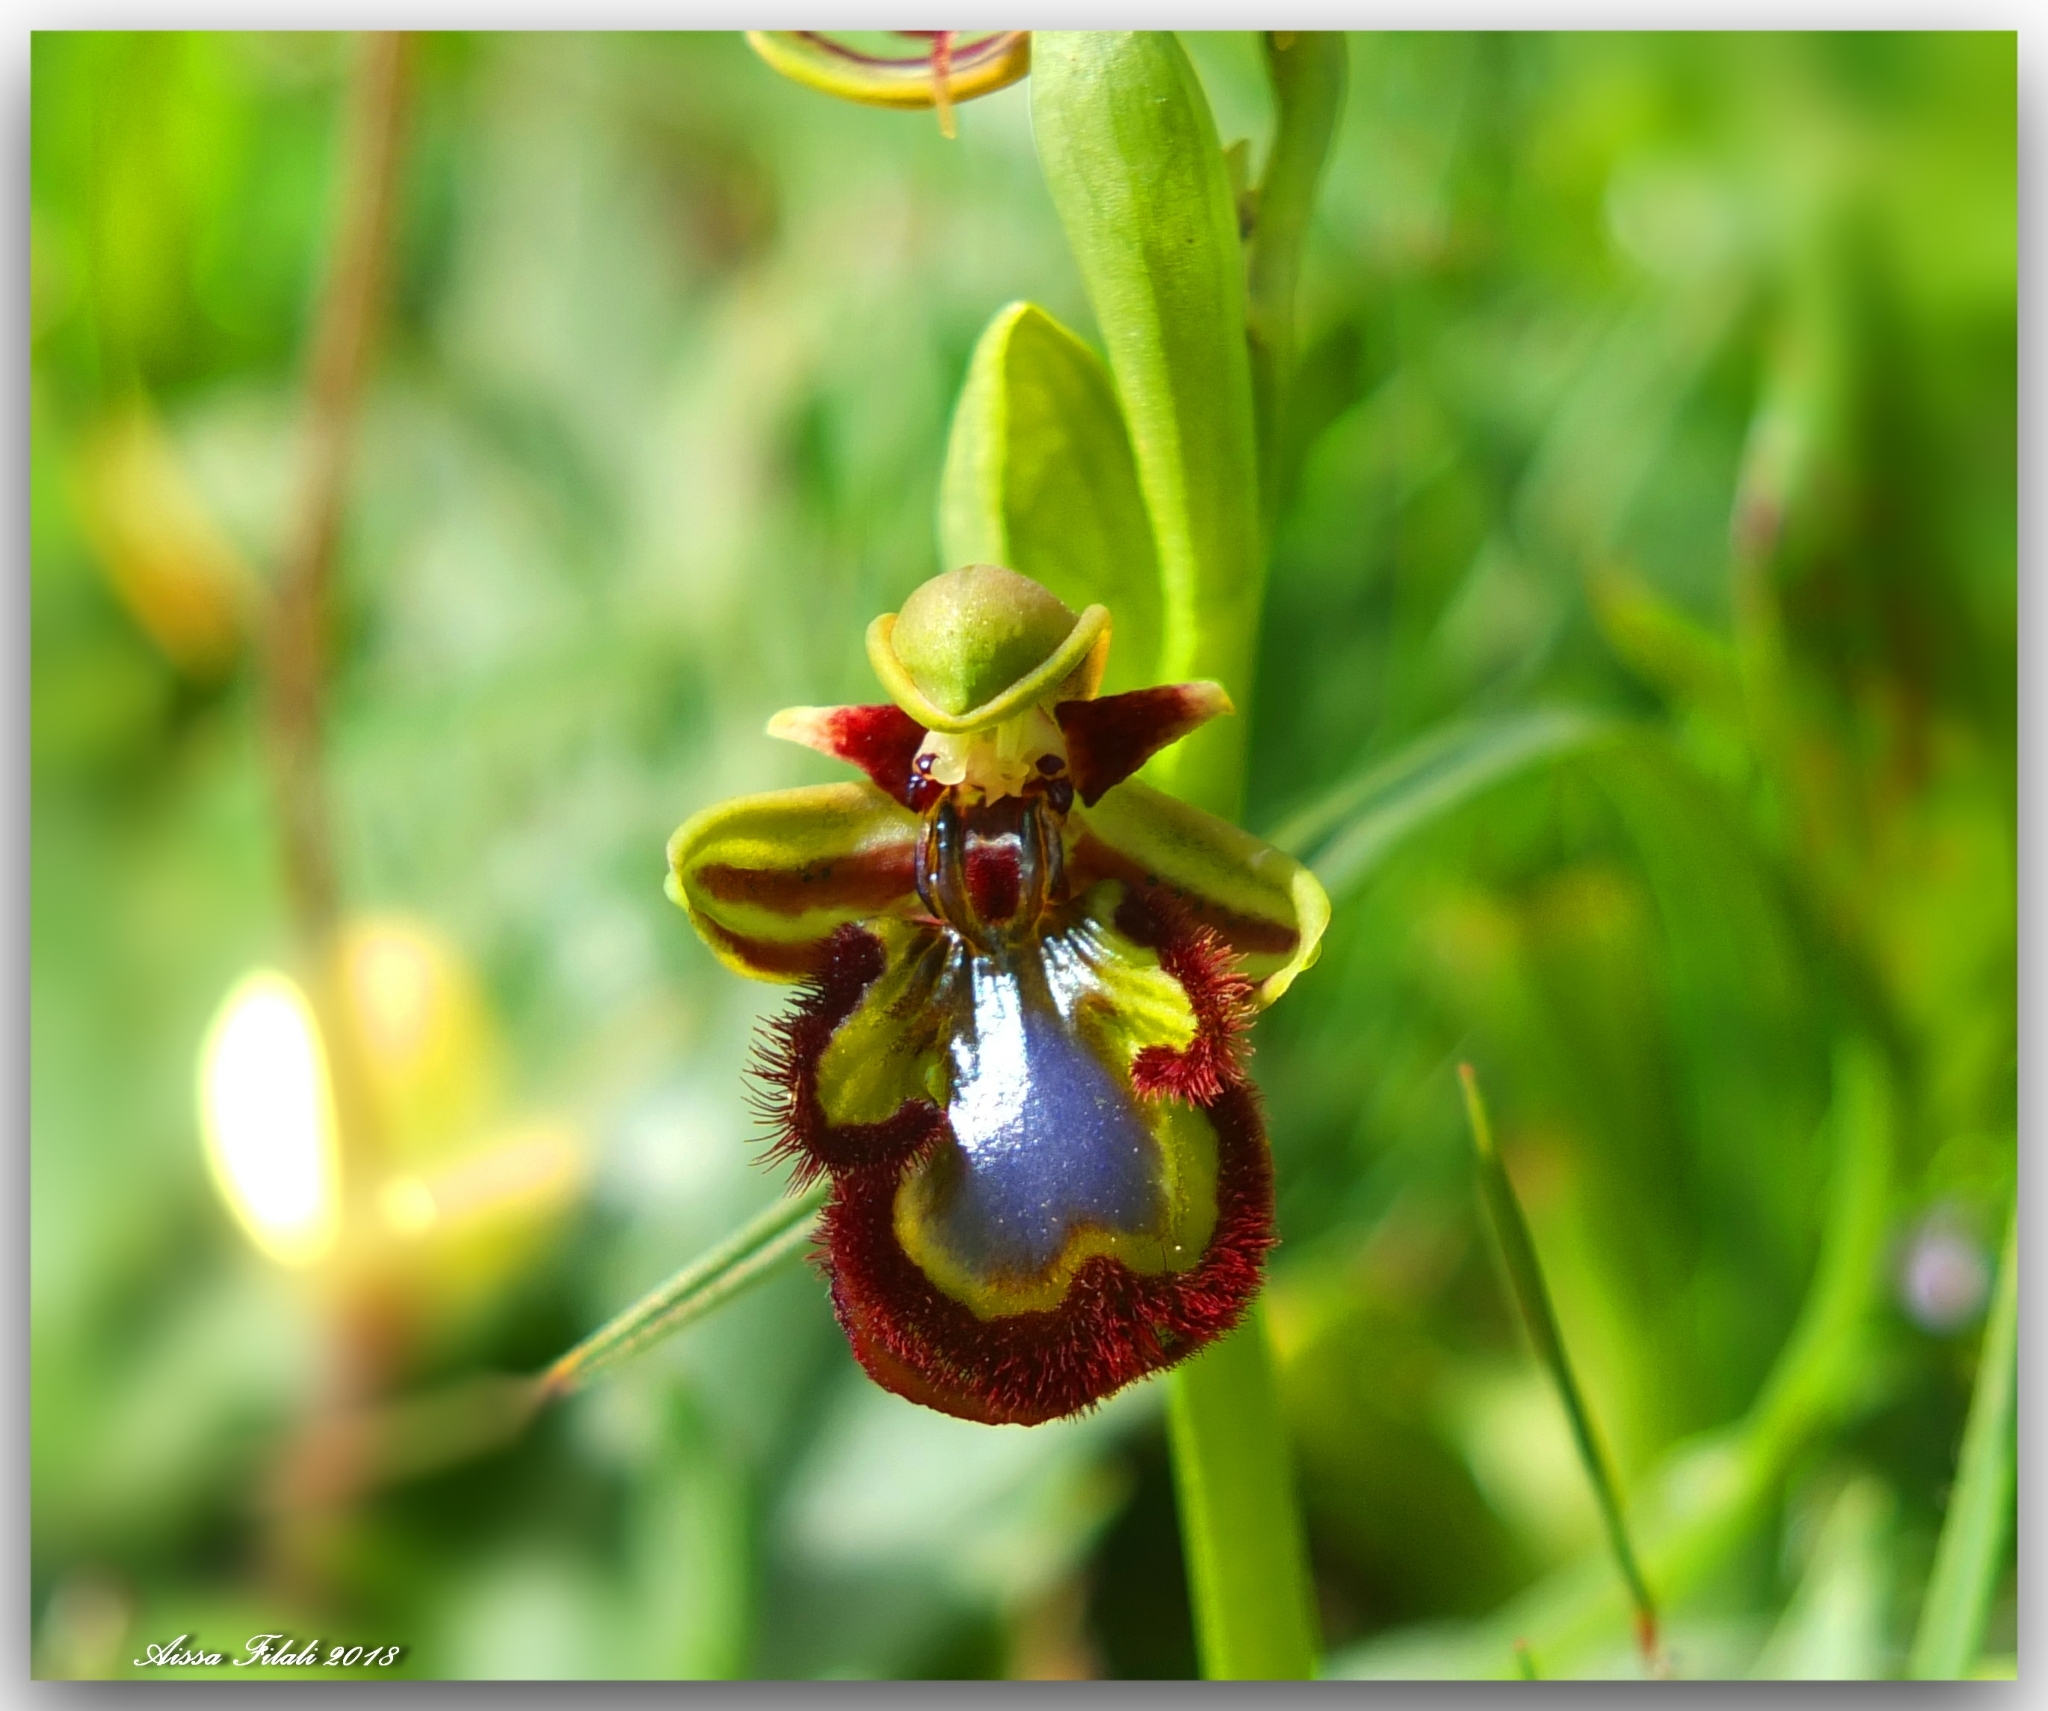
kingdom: Plantae
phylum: Tracheophyta
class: Liliopsida
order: Asparagales
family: Orchidaceae
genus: Ophrys
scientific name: Ophrys speculum
